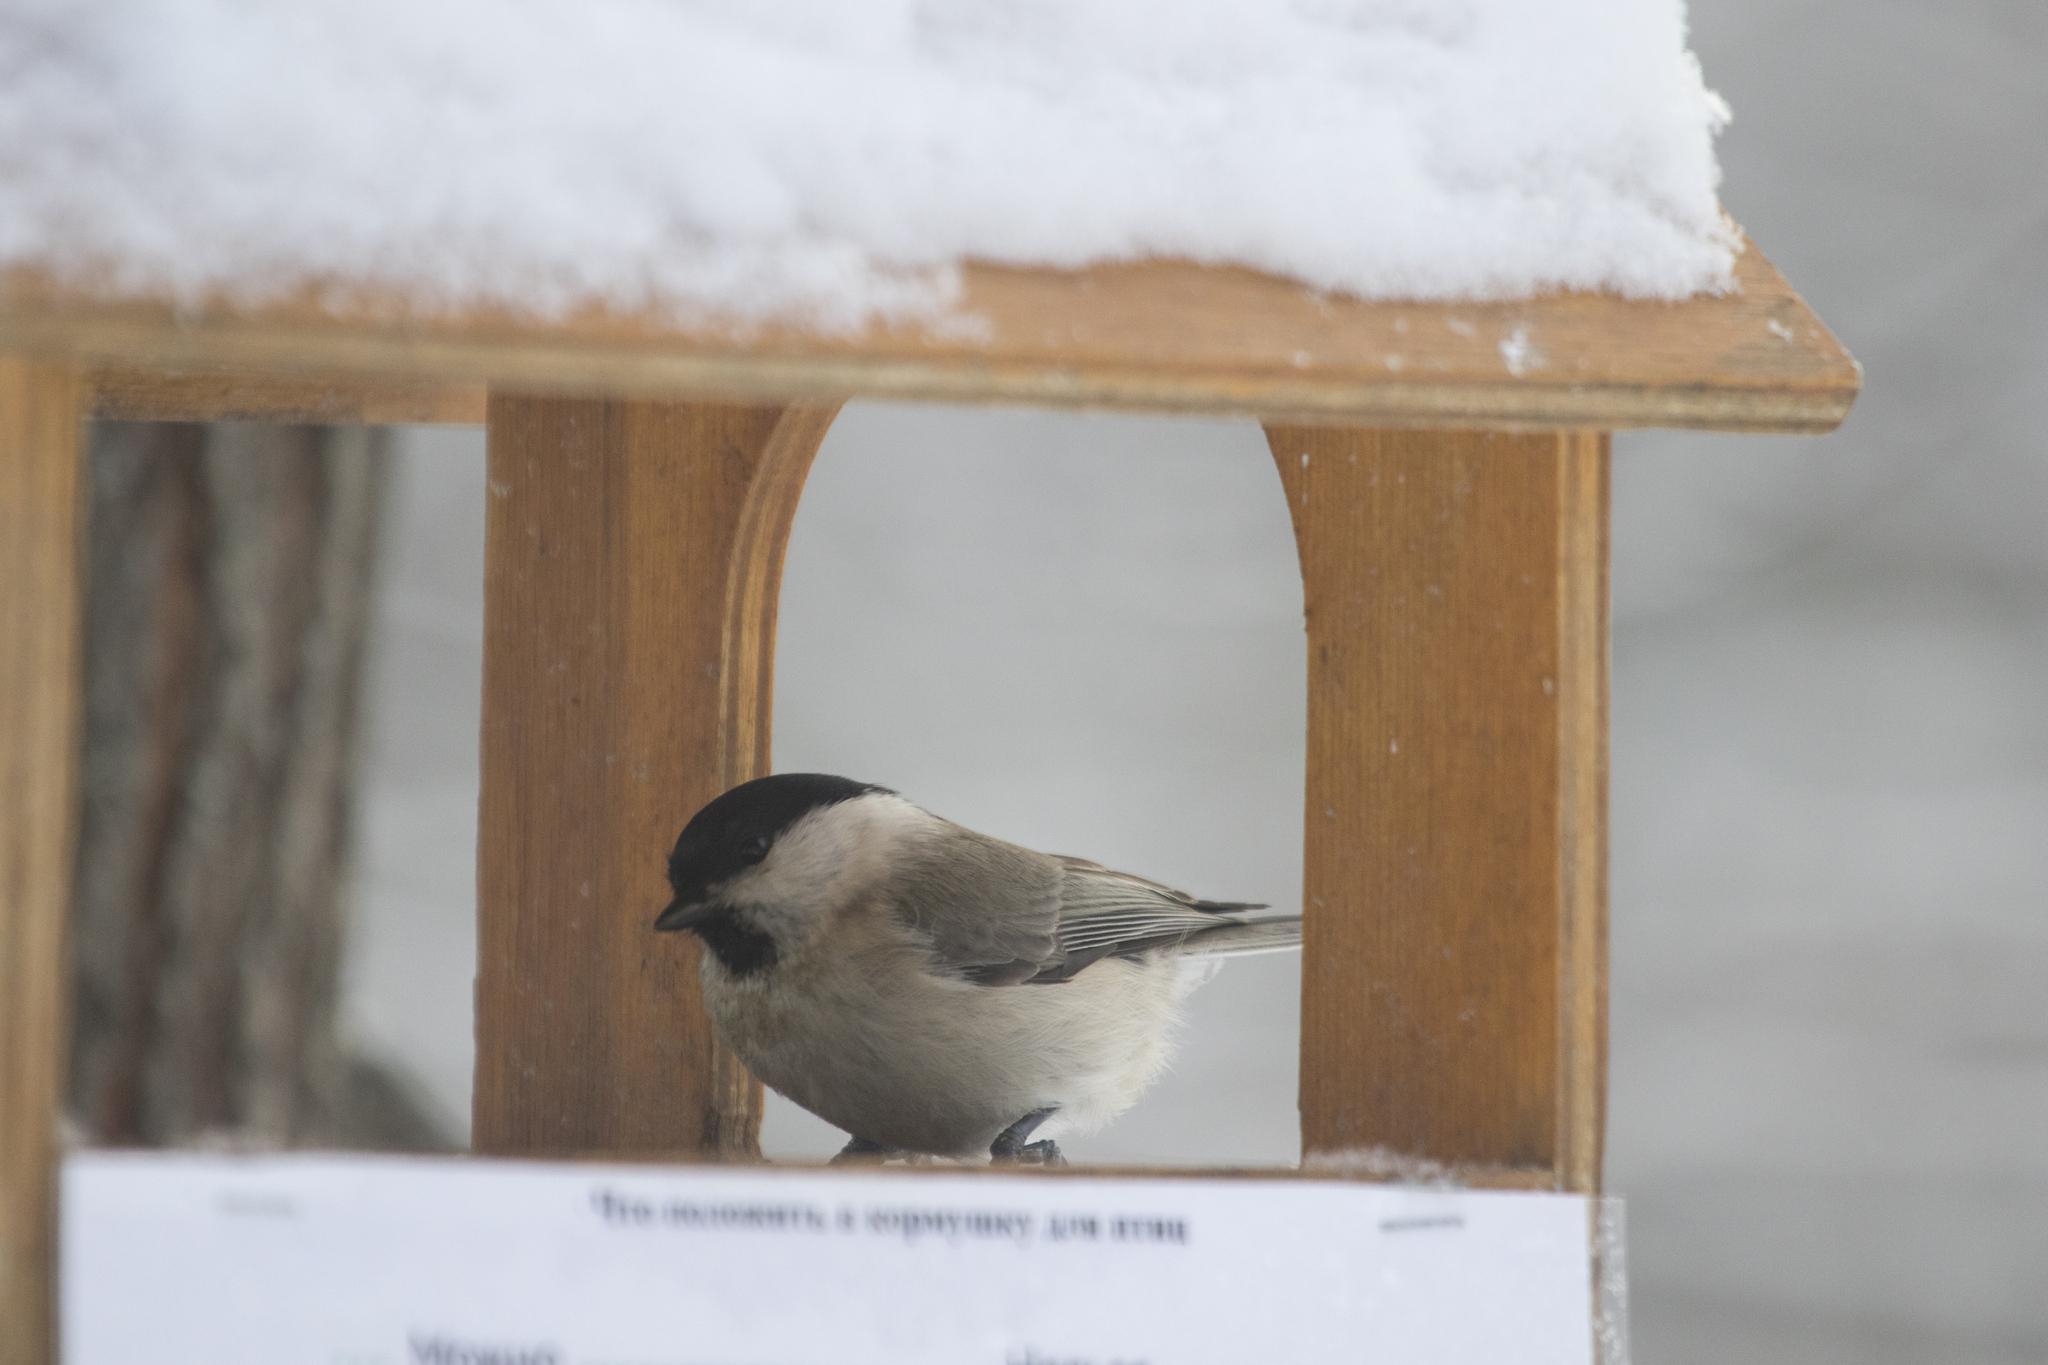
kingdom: Animalia
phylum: Chordata
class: Aves
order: Passeriformes
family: Paridae
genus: Poecile
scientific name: Poecile montanus
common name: Willow tit
